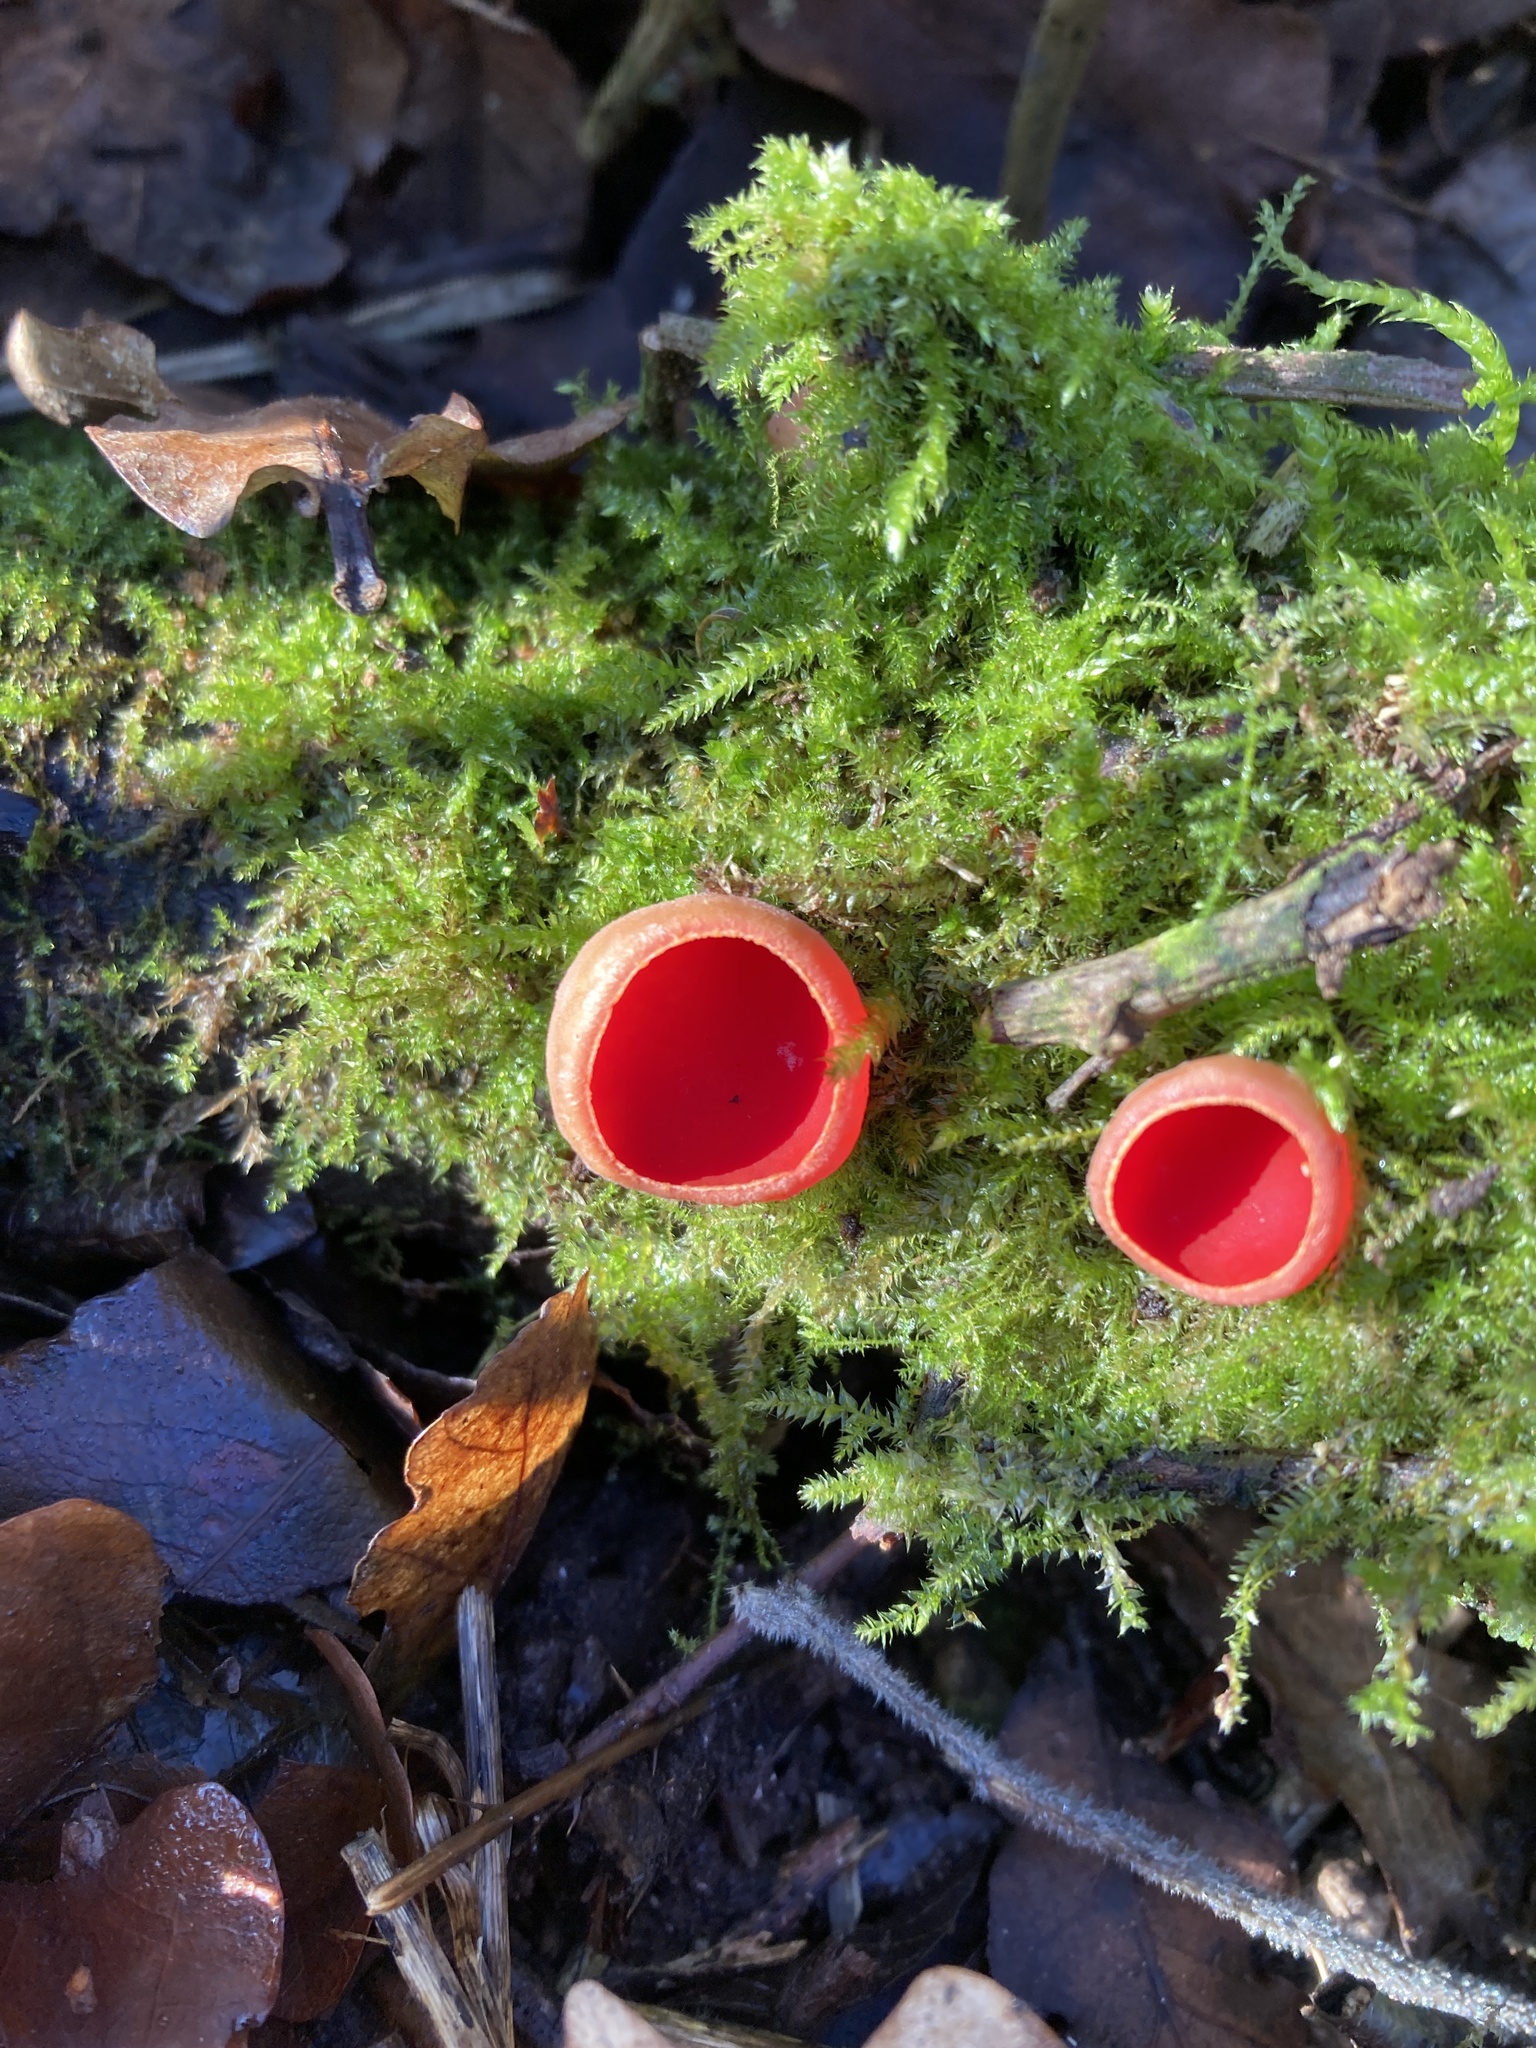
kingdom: Fungi
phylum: Ascomycota
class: Pezizomycetes
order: Pezizales
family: Sarcoscyphaceae
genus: Sarcoscypha
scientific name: Sarcoscypha
